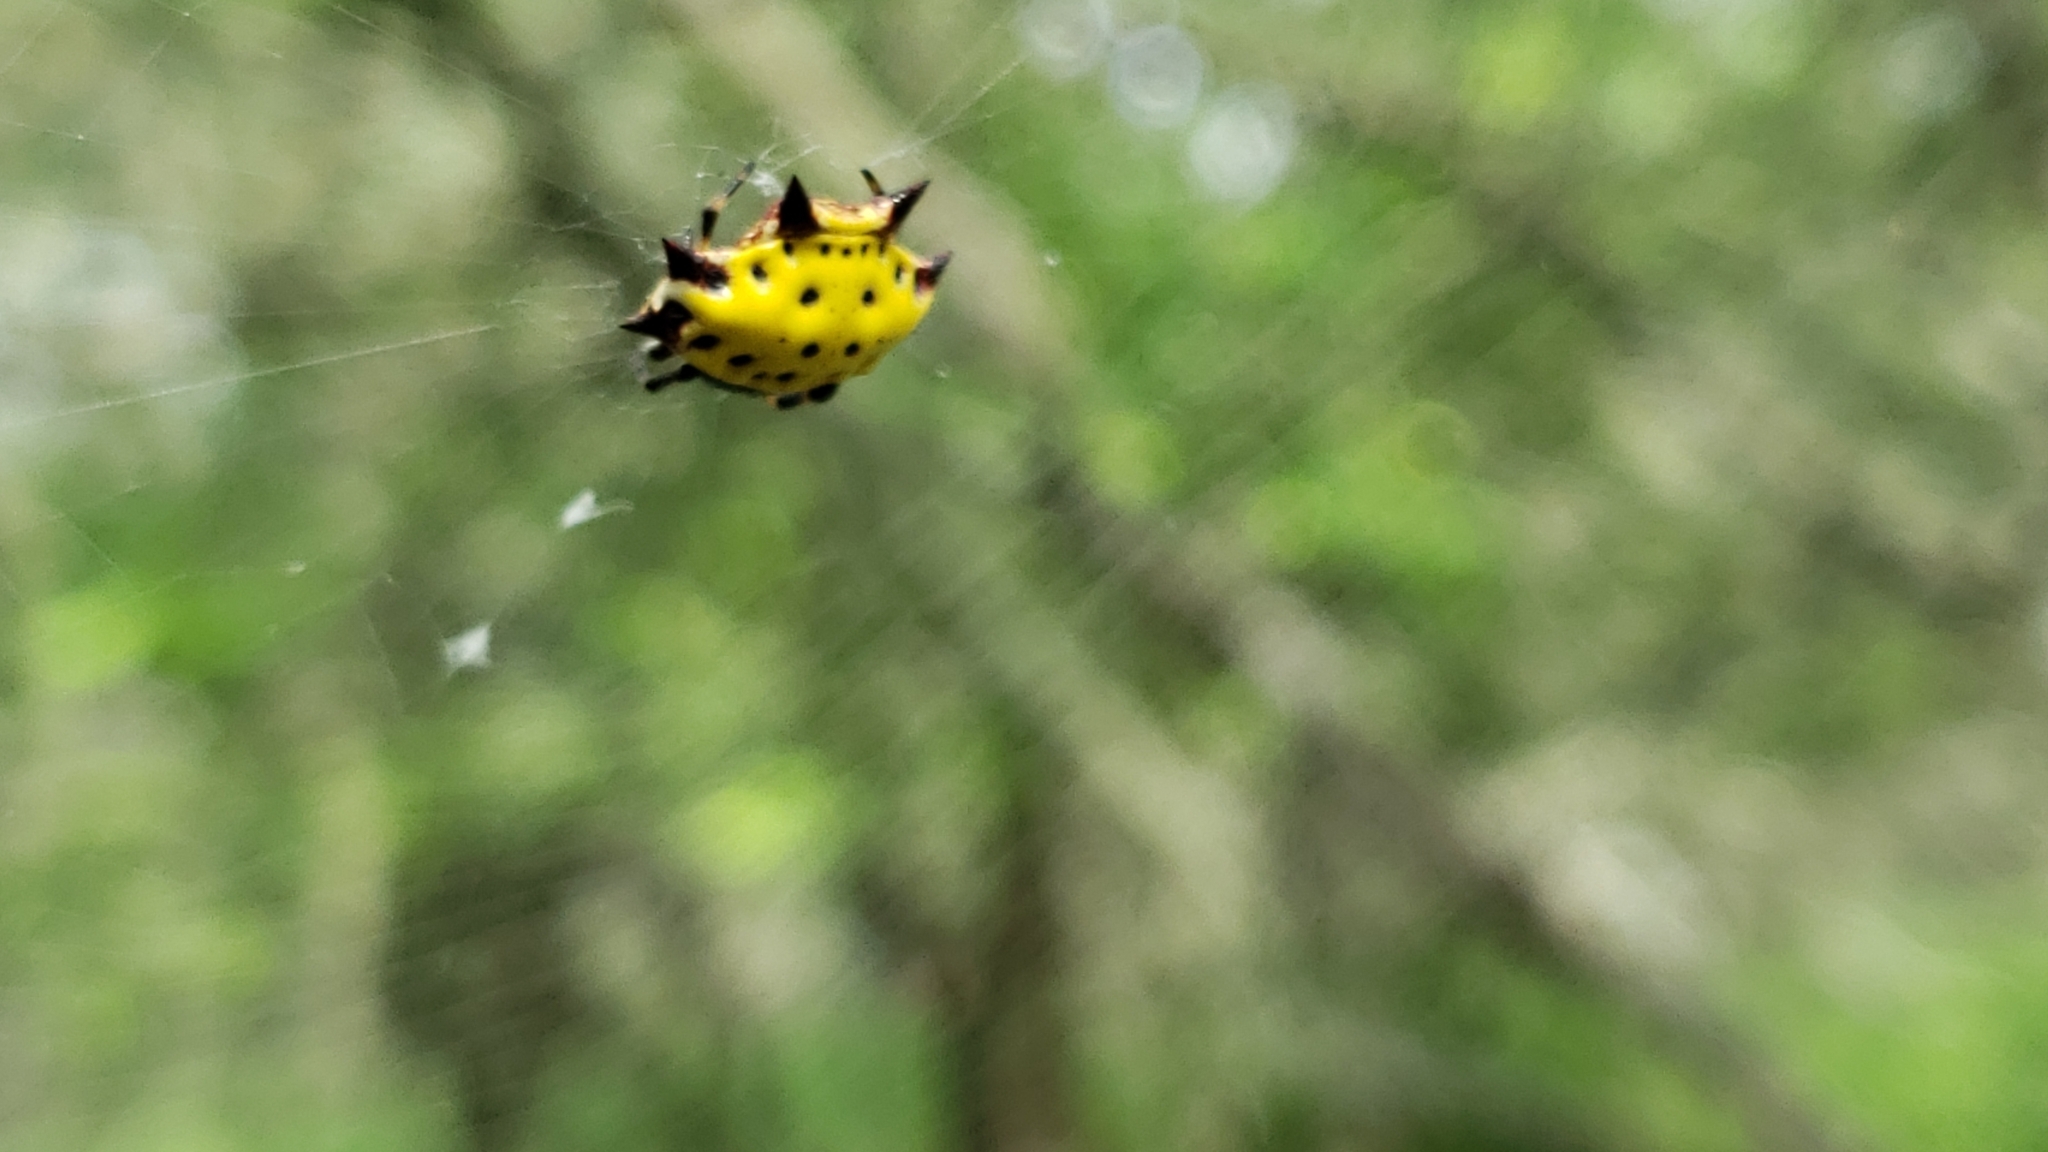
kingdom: Animalia
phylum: Arthropoda
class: Arachnida
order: Araneae
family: Araneidae
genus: Gasteracantha
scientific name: Gasteracantha cancriformis
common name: Orb weavers
